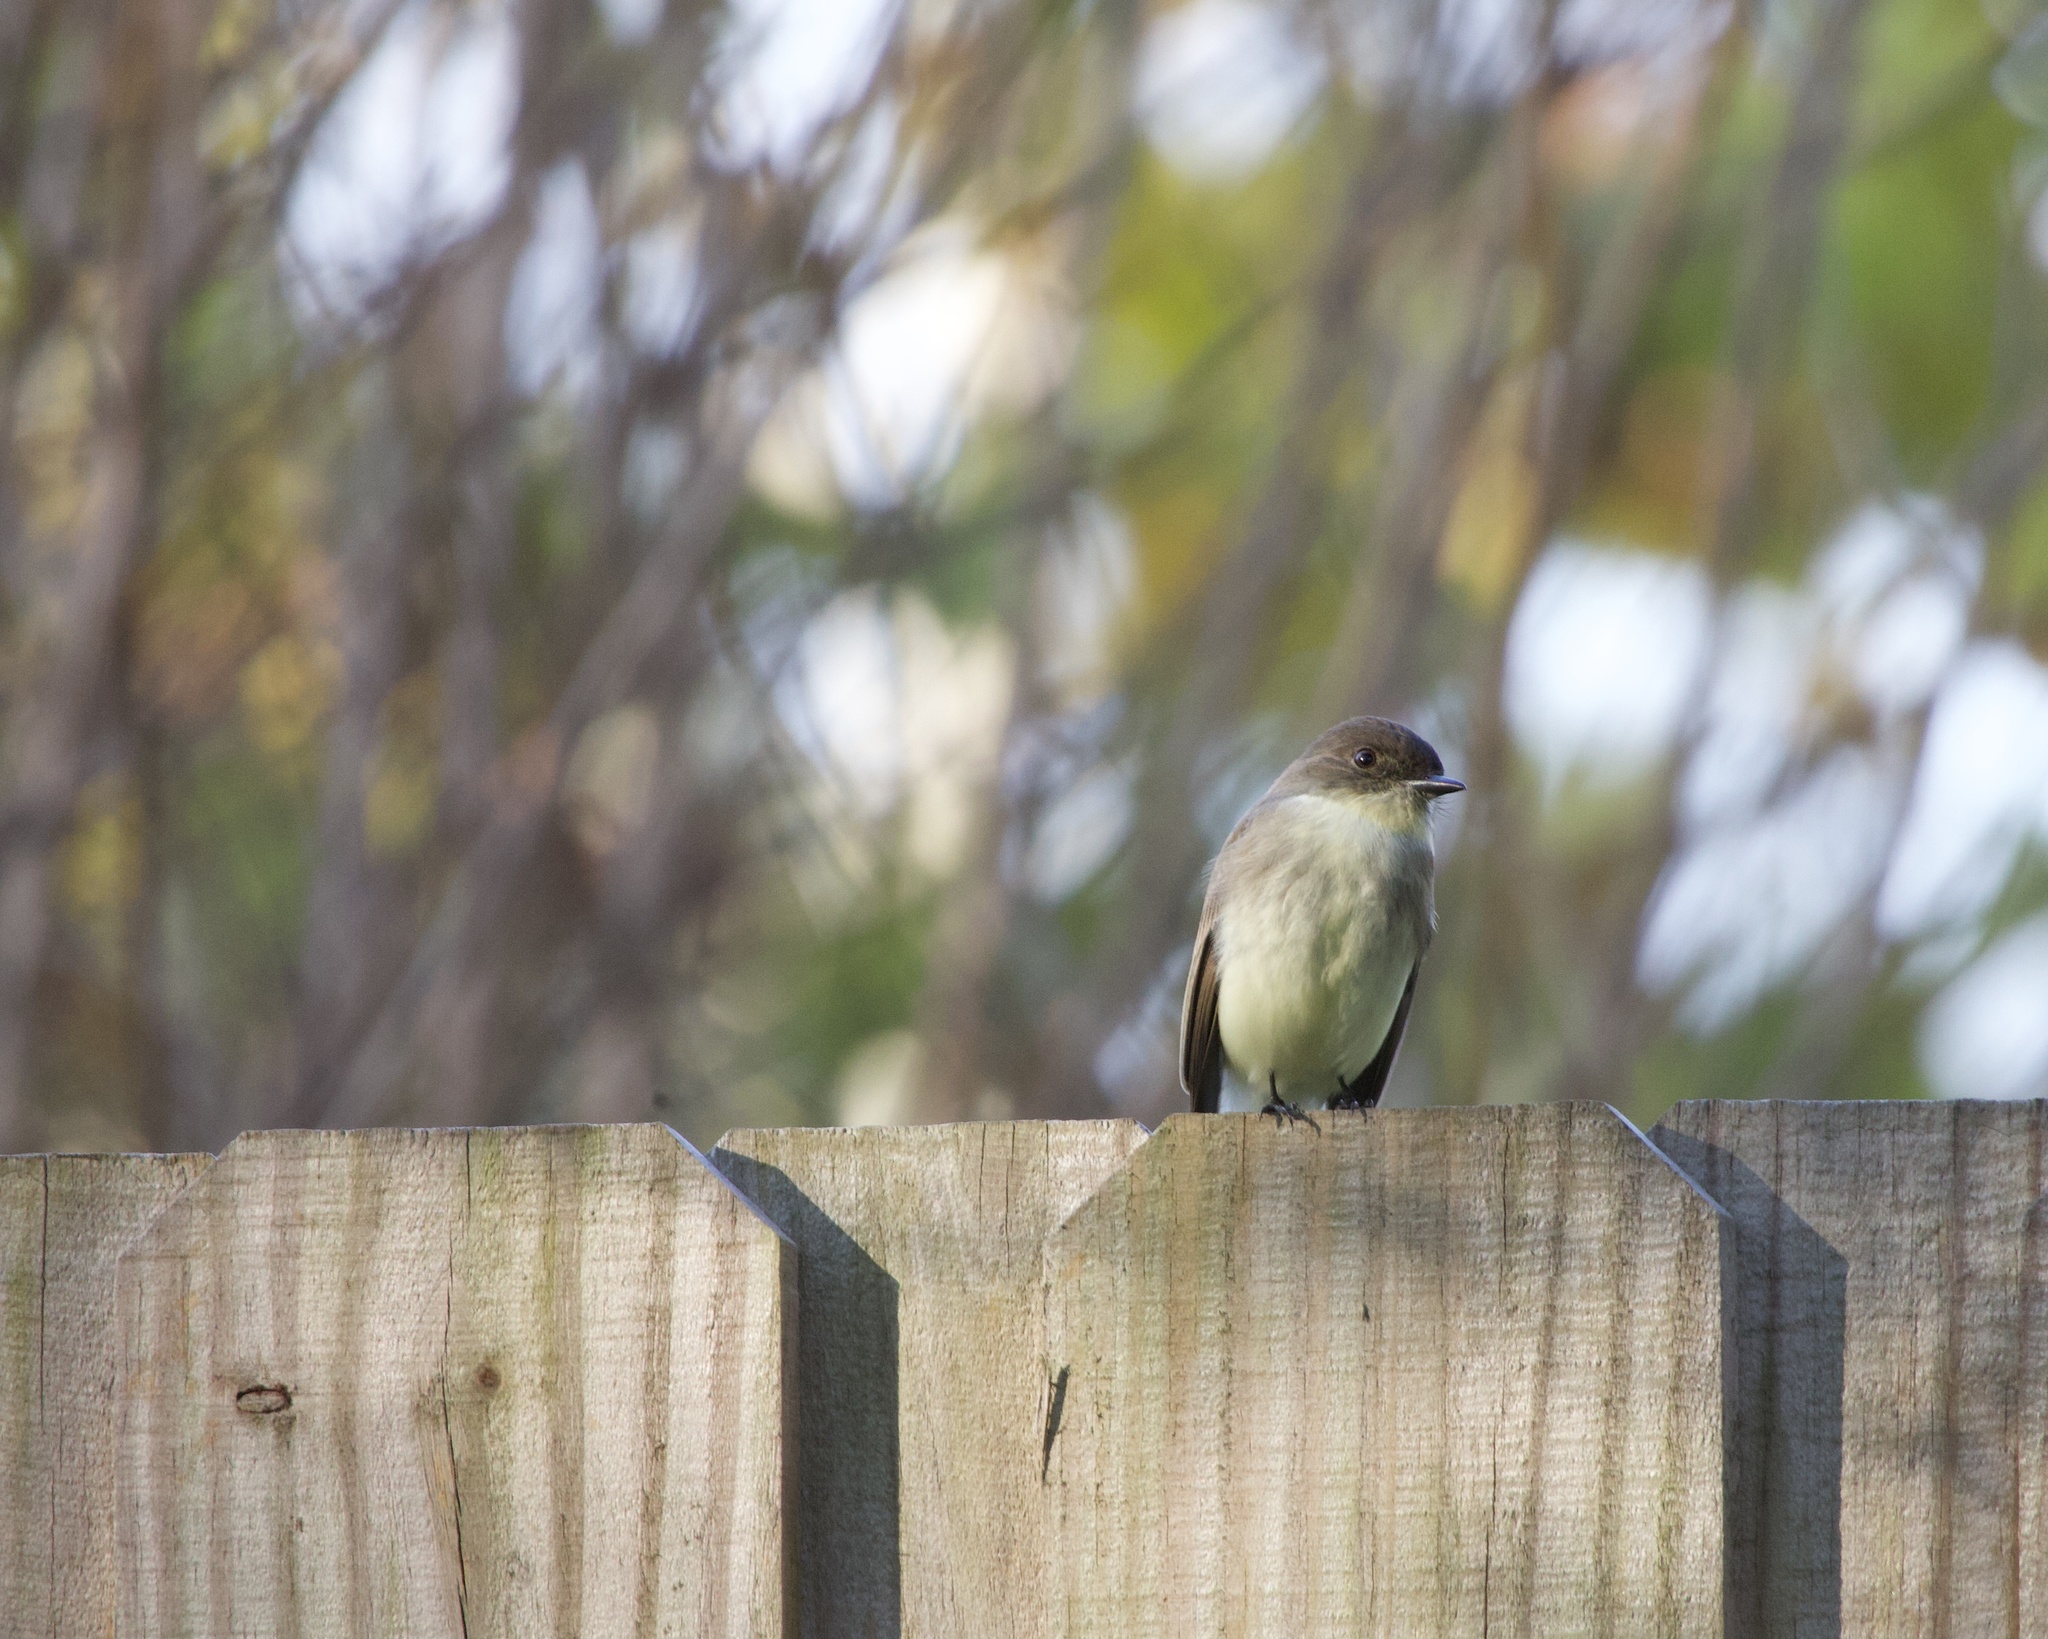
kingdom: Animalia
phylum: Chordata
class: Aves
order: Passeriformes
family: Tyrannidae
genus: Sayornis
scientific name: Sayornis phoebe
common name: Eastern phoebe
